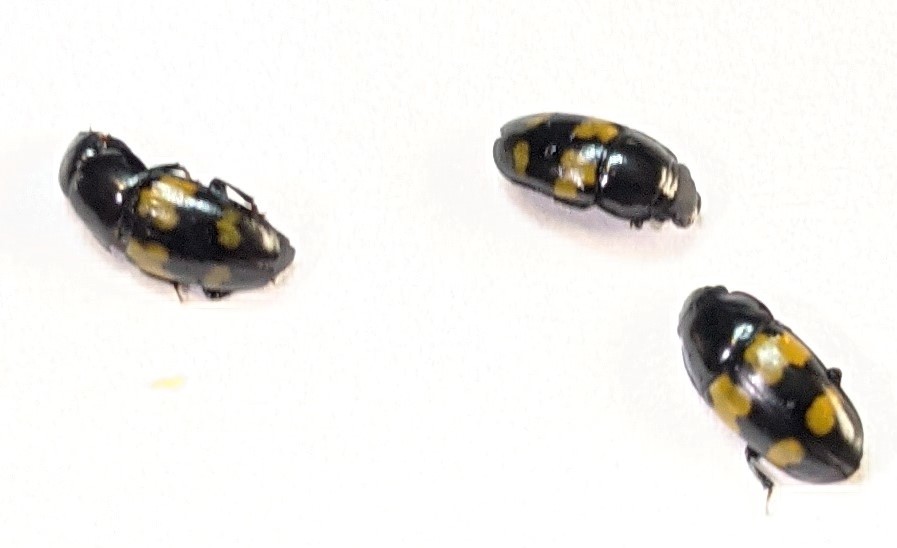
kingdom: Animalia
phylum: Arthropoda
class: Insecta
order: Coleoptera
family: Nitidulidae
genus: Glischrochilus
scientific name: Glischrochilus fasciatus
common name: Picnic beetle
